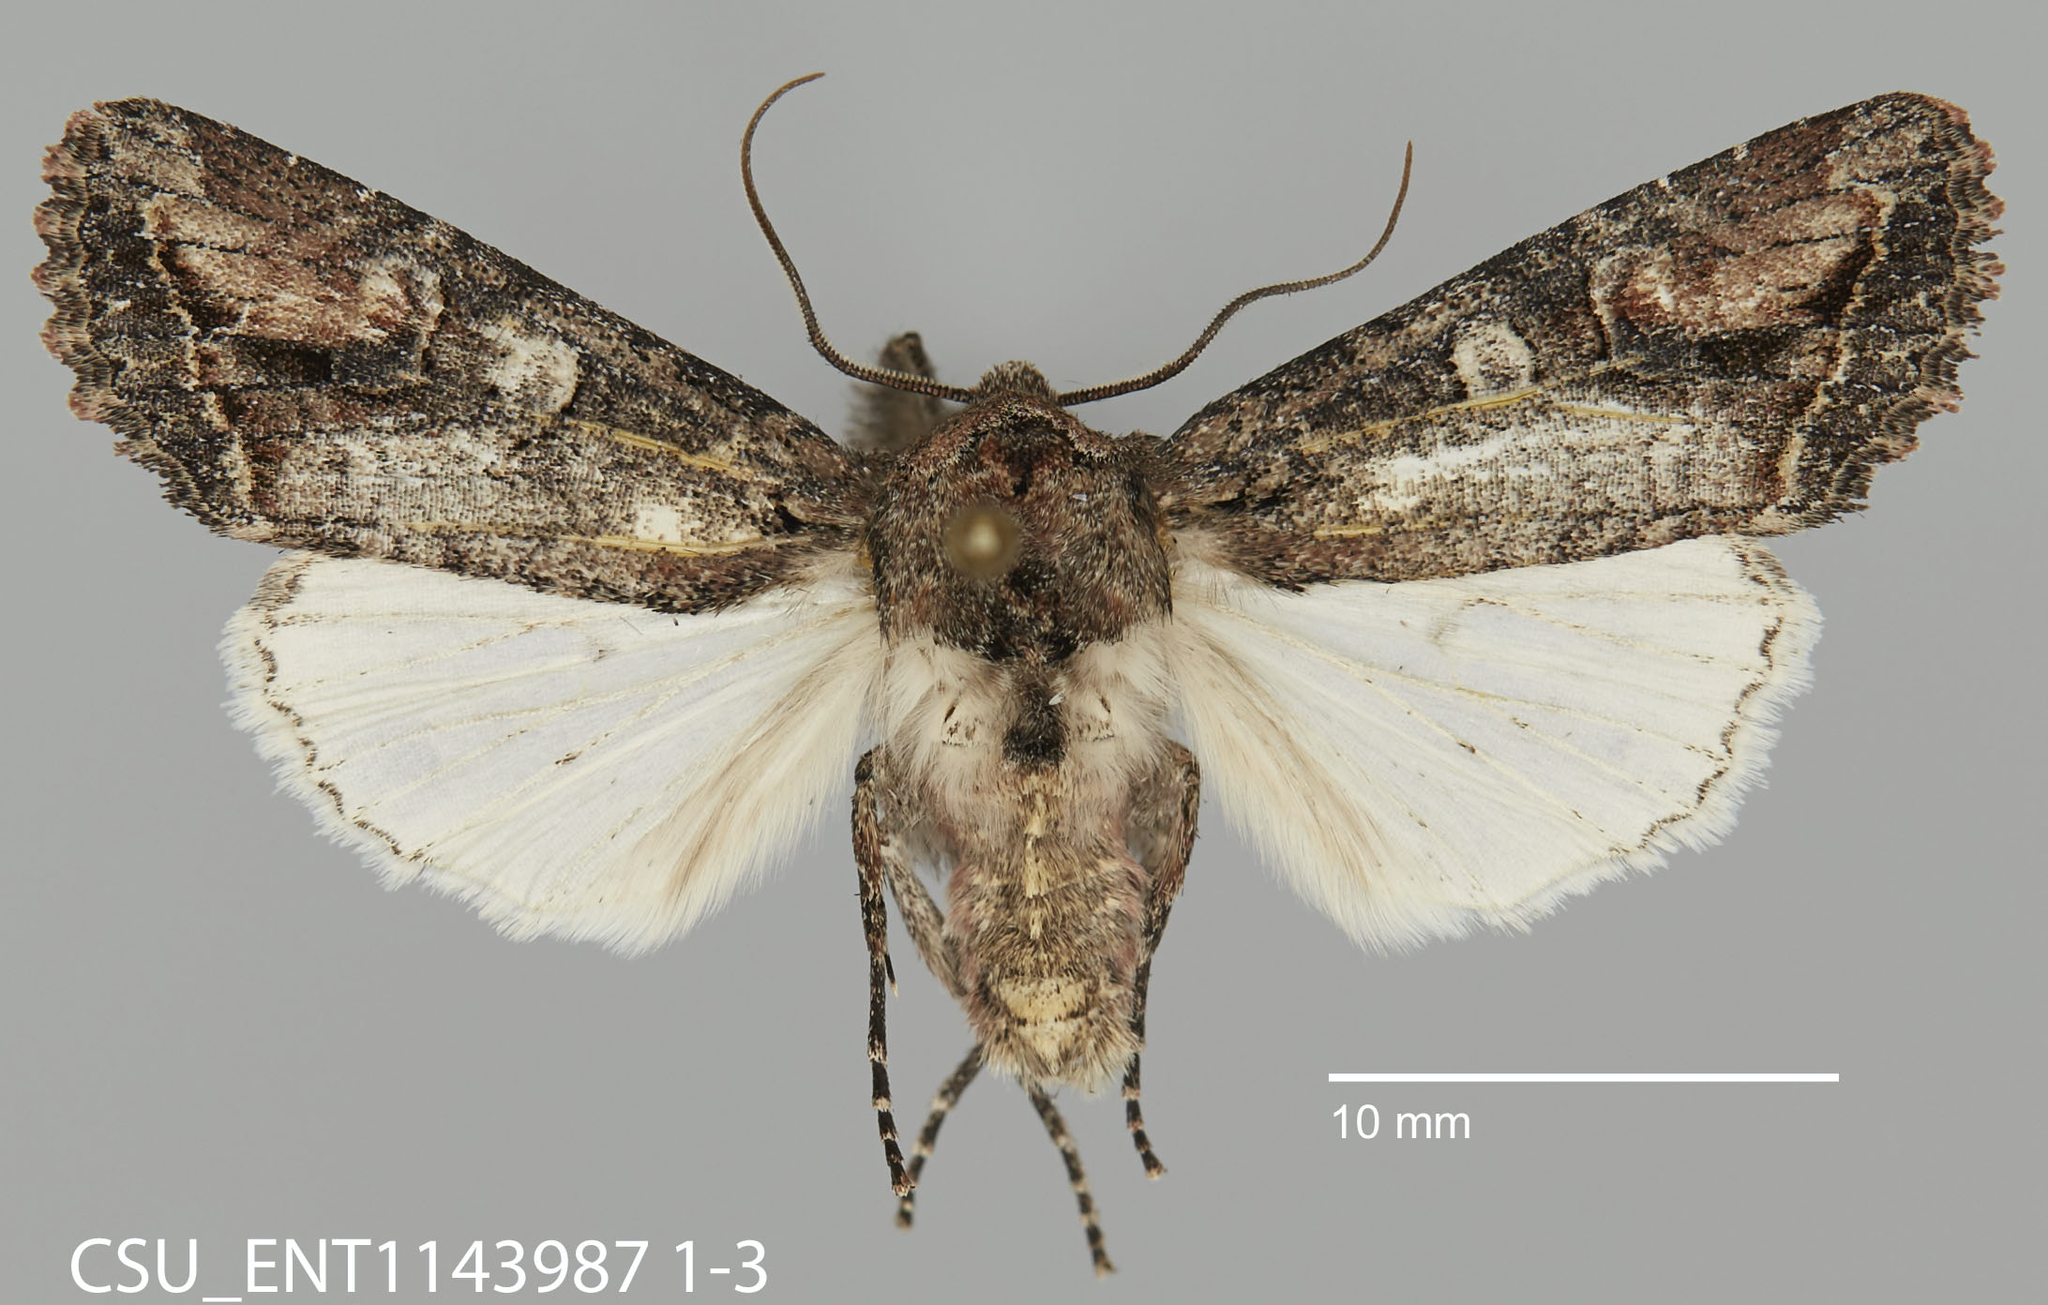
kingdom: Animalia
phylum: Arthropoda
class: Insecta
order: Lepidoptera
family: Noctuidae
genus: Egira
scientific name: Egira perlubens
